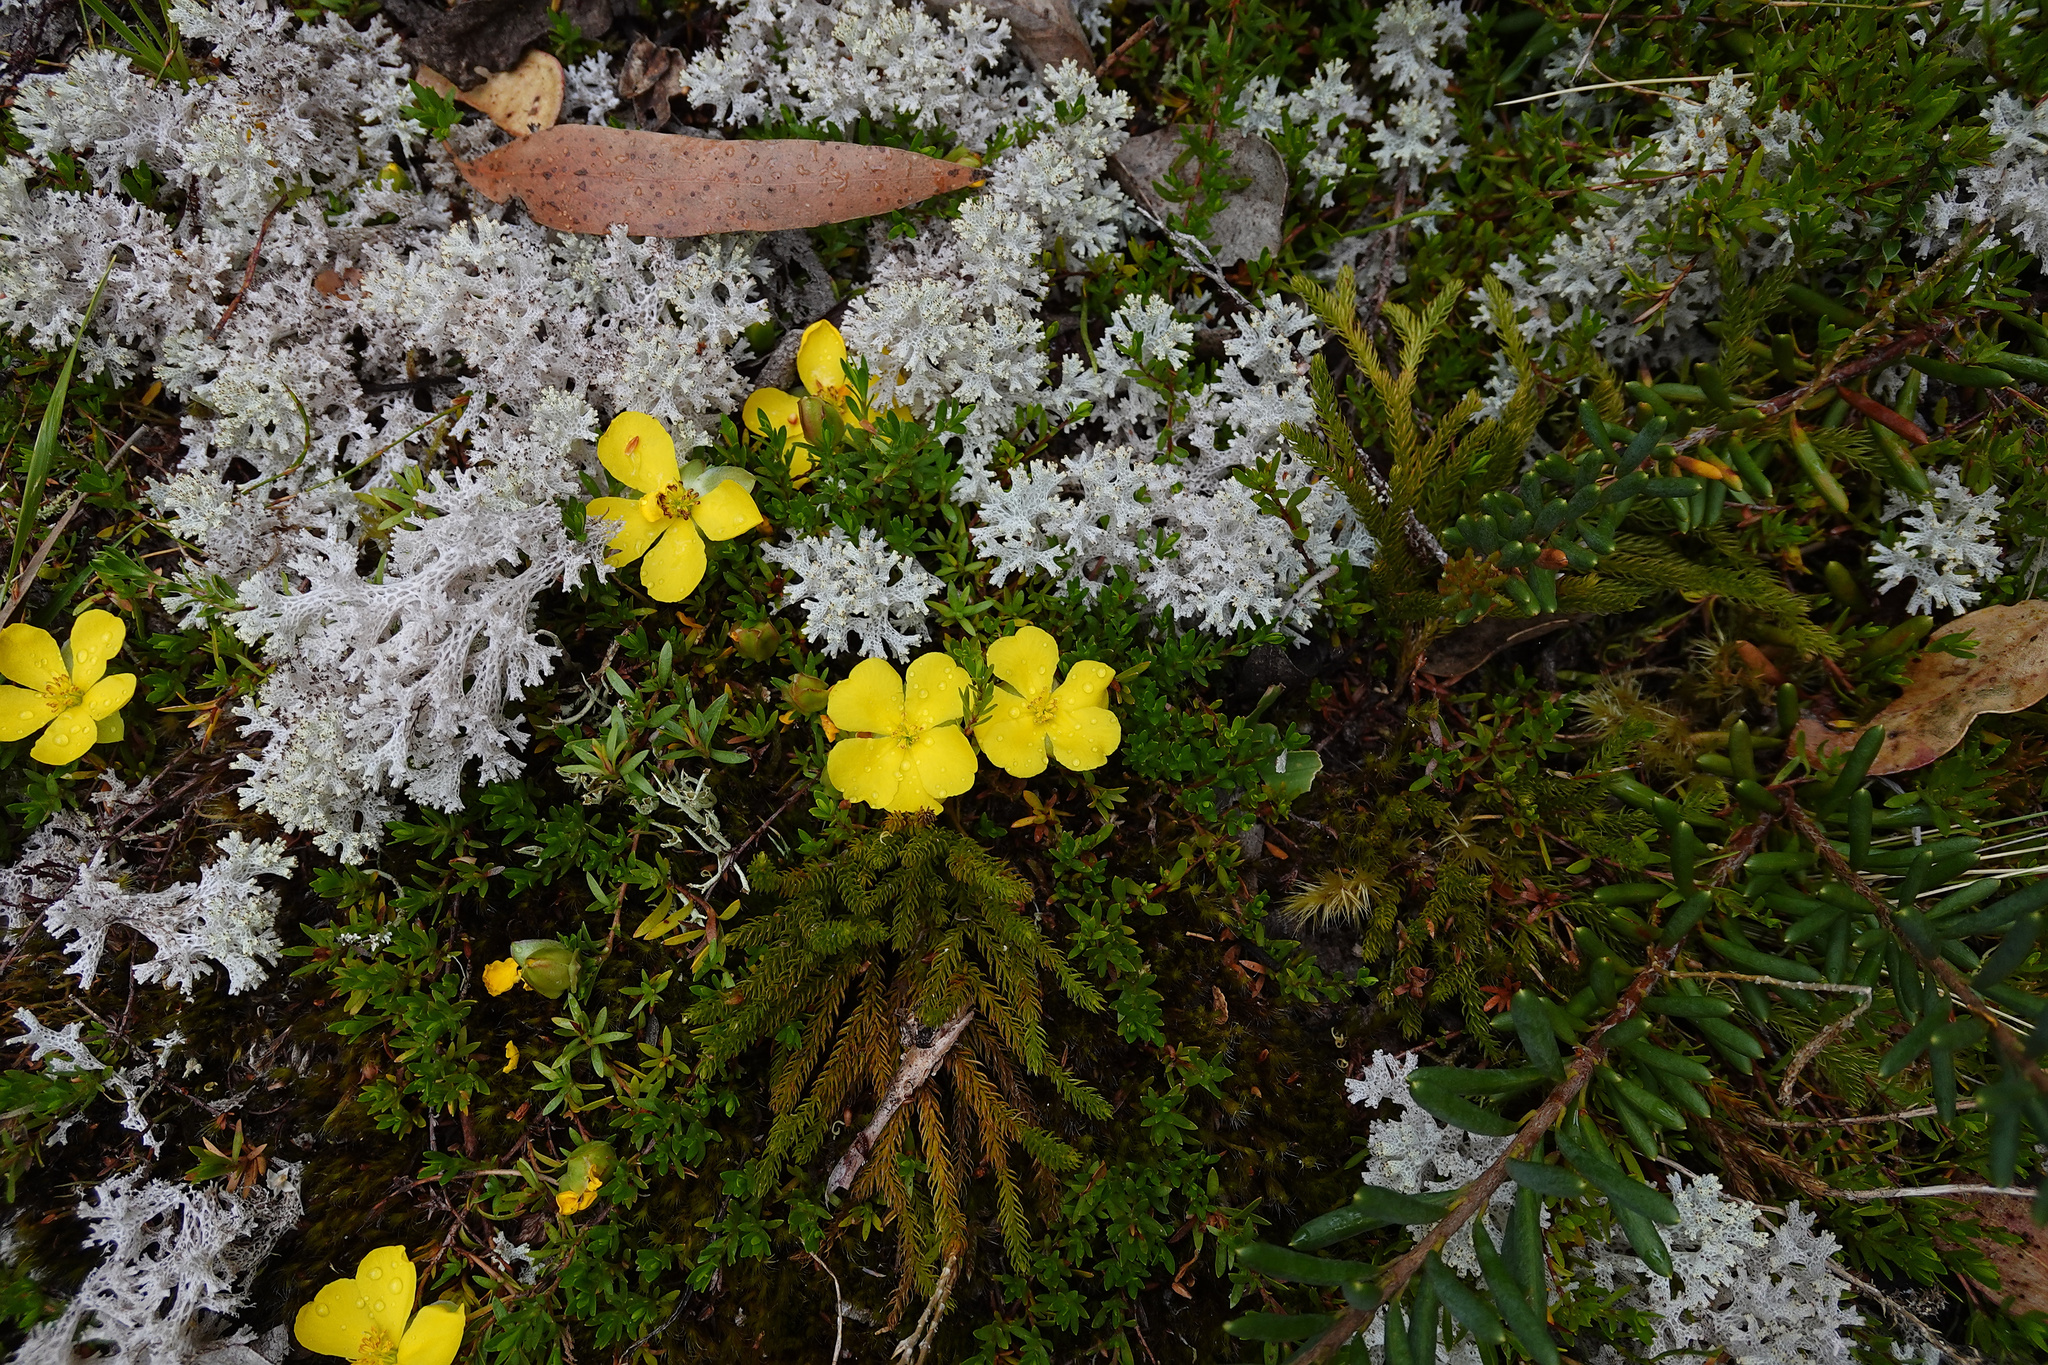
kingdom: Plantae
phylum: Tracheophyta
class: Magnoliopsida
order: Dilleniales
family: Dilleniaceae
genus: Hibbertia
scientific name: Hibbertia procumbens
